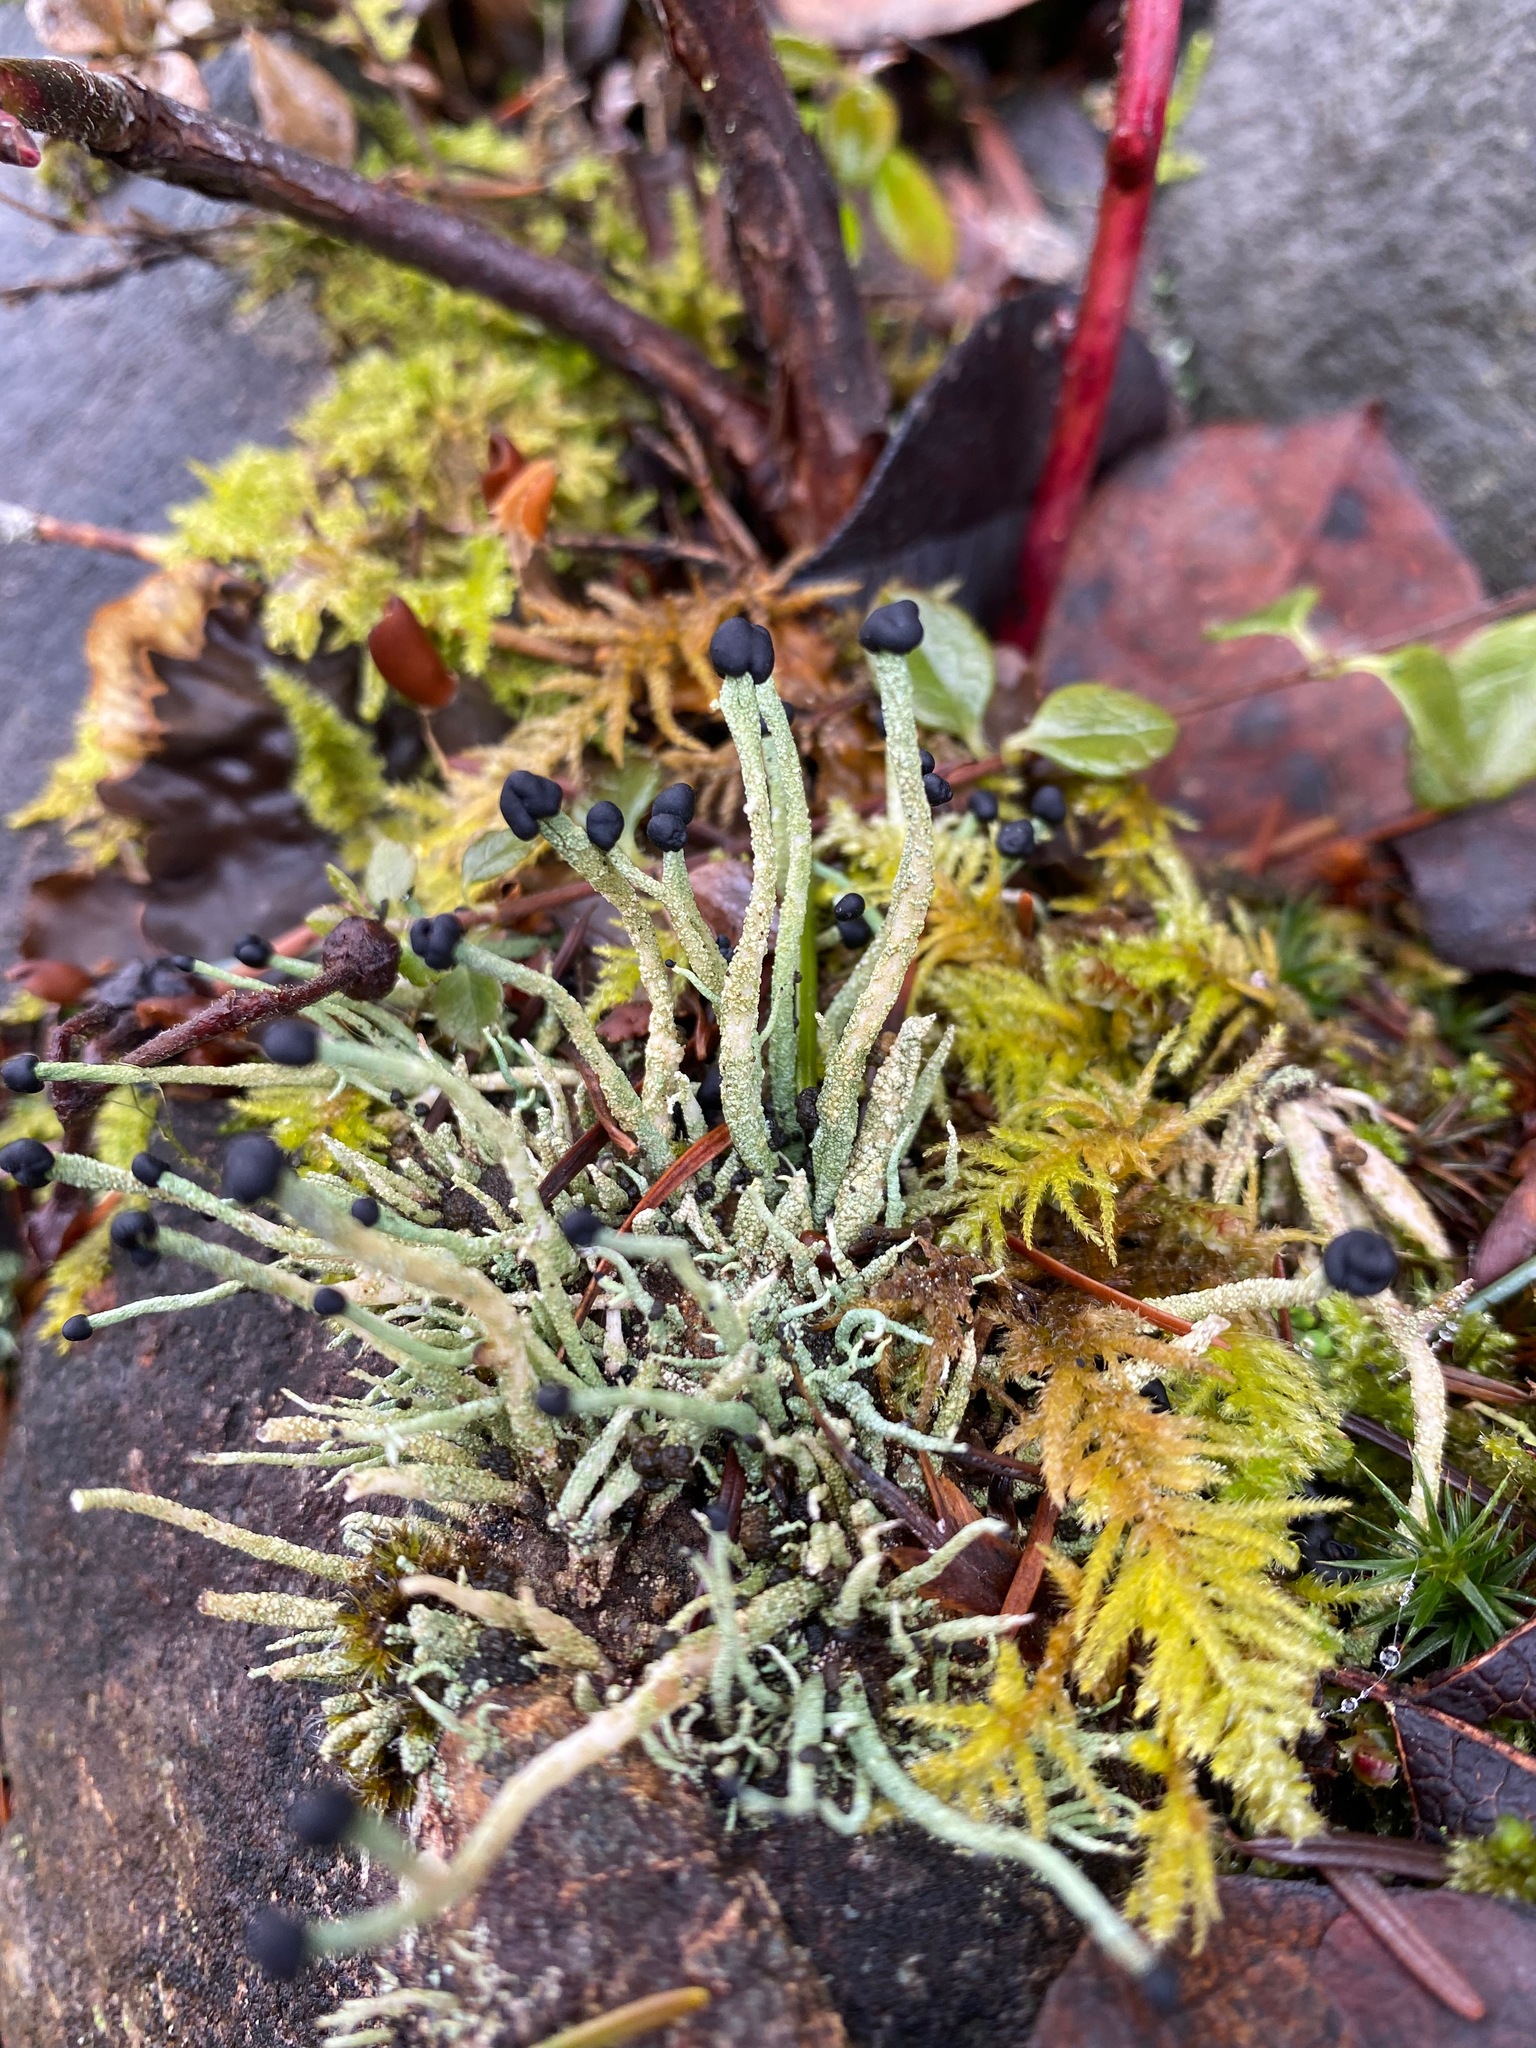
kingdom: Fungi
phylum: Ascomycota
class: Lecanoromycetes
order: Lecanorales
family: Cladoniaceae
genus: Pilophorus
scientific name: Pilophorus acicularis
